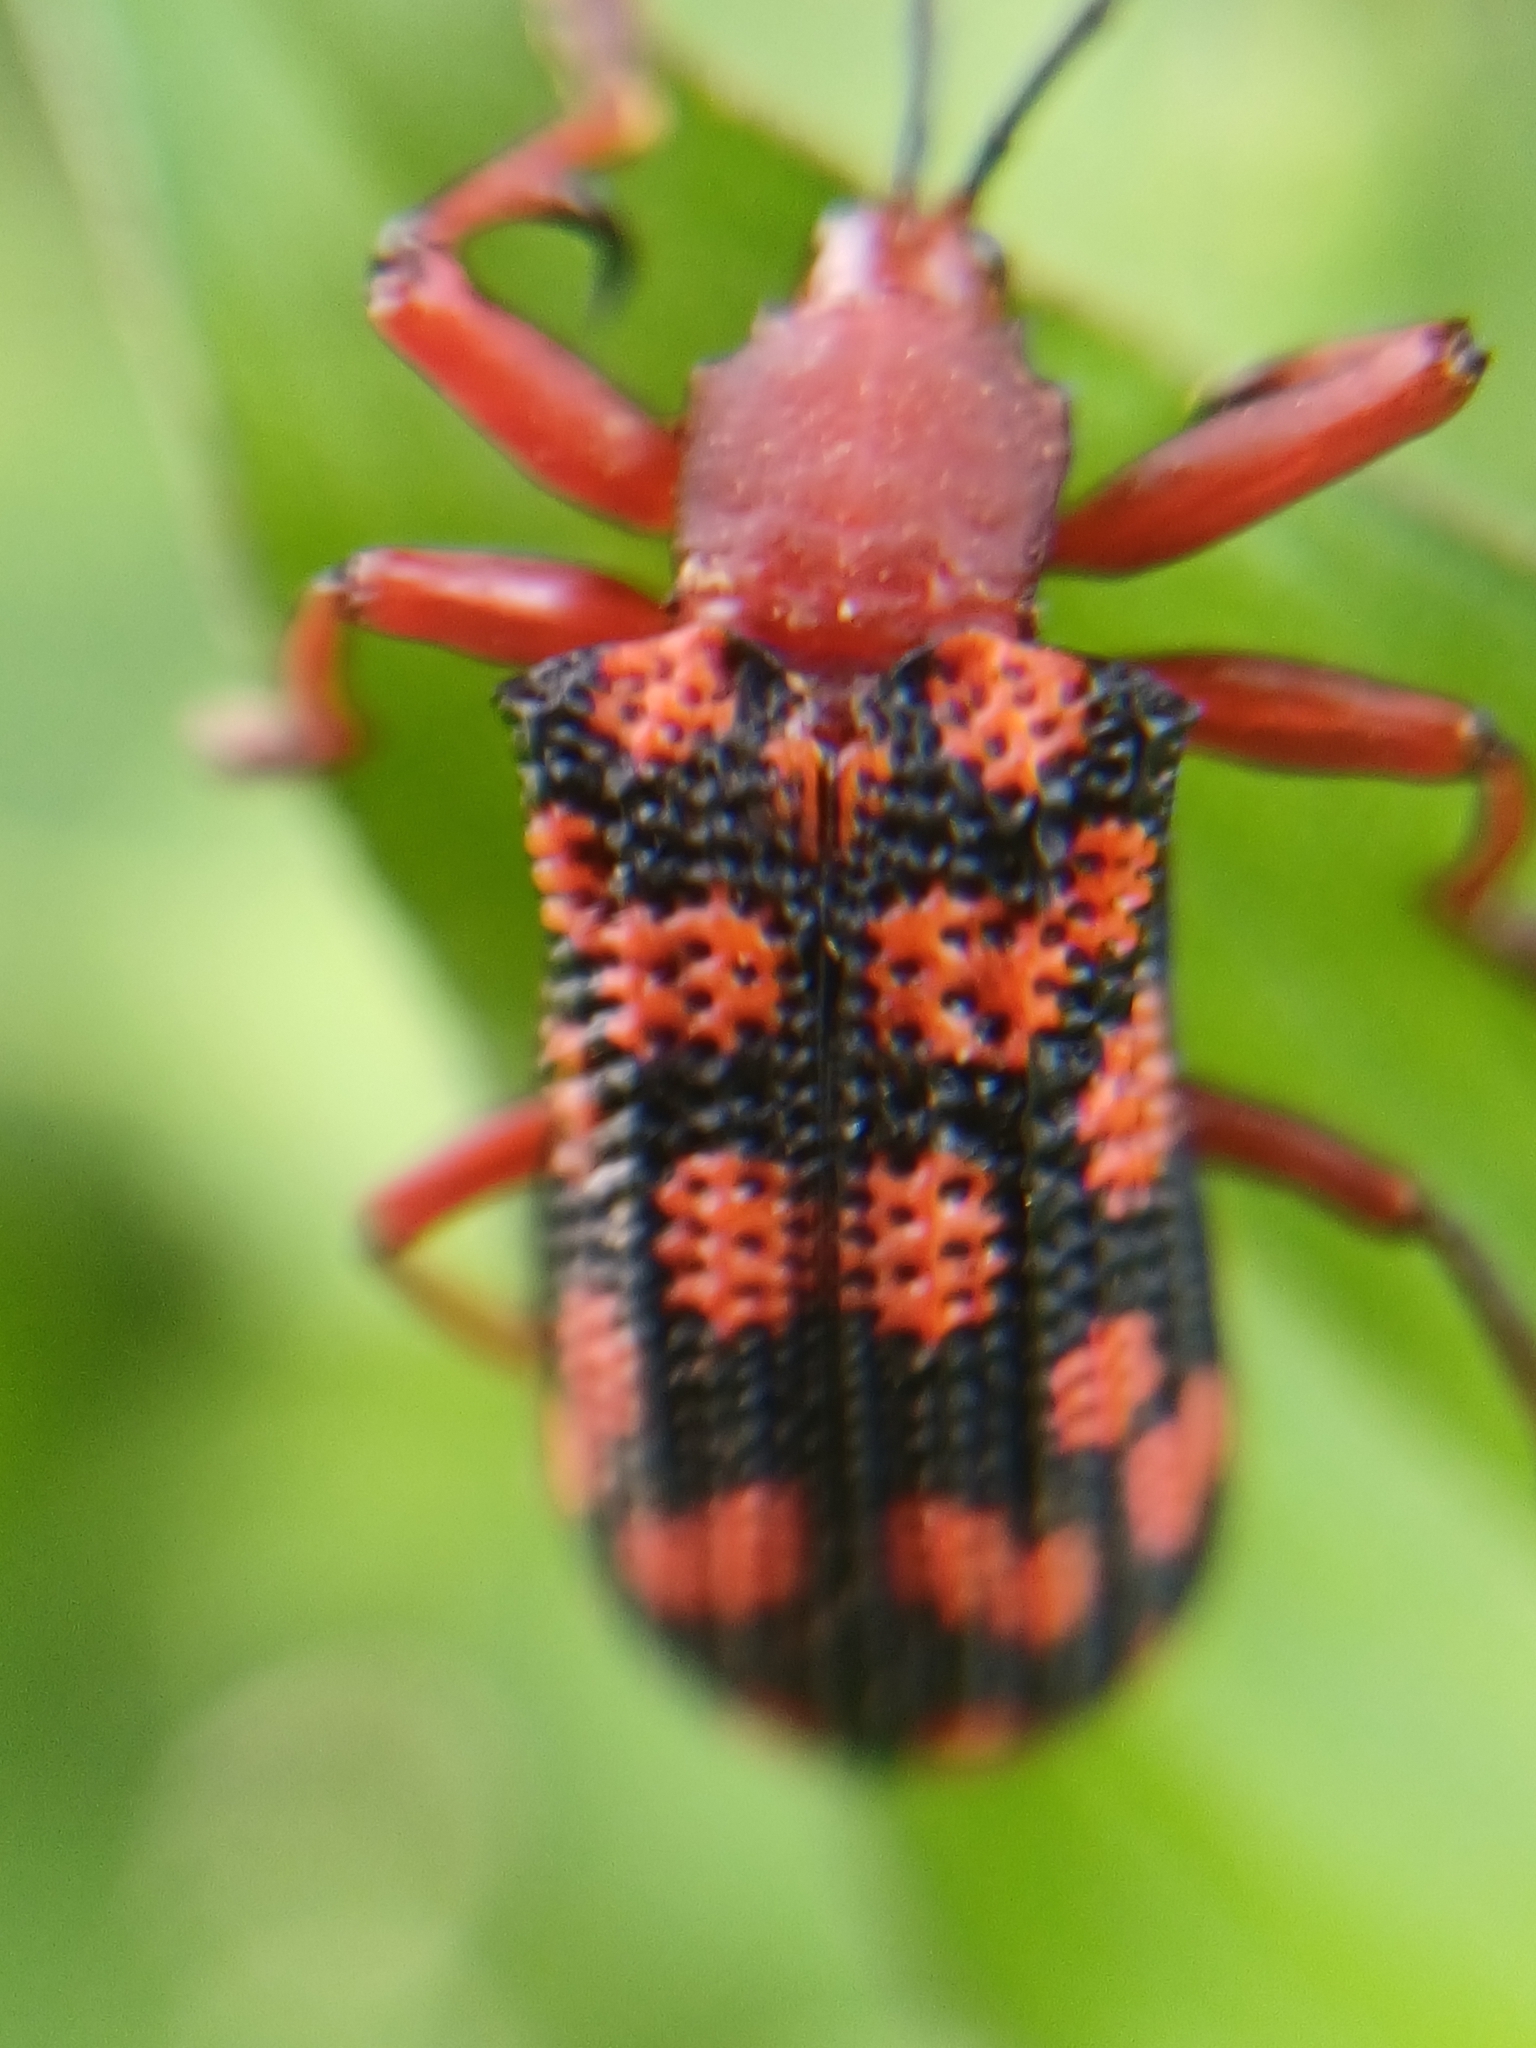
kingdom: Animalia
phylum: Arthropoda
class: Insecta
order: Coleoptera
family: Chrysomelidae
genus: Sceloenopla
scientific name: Sceloenopla maculata
